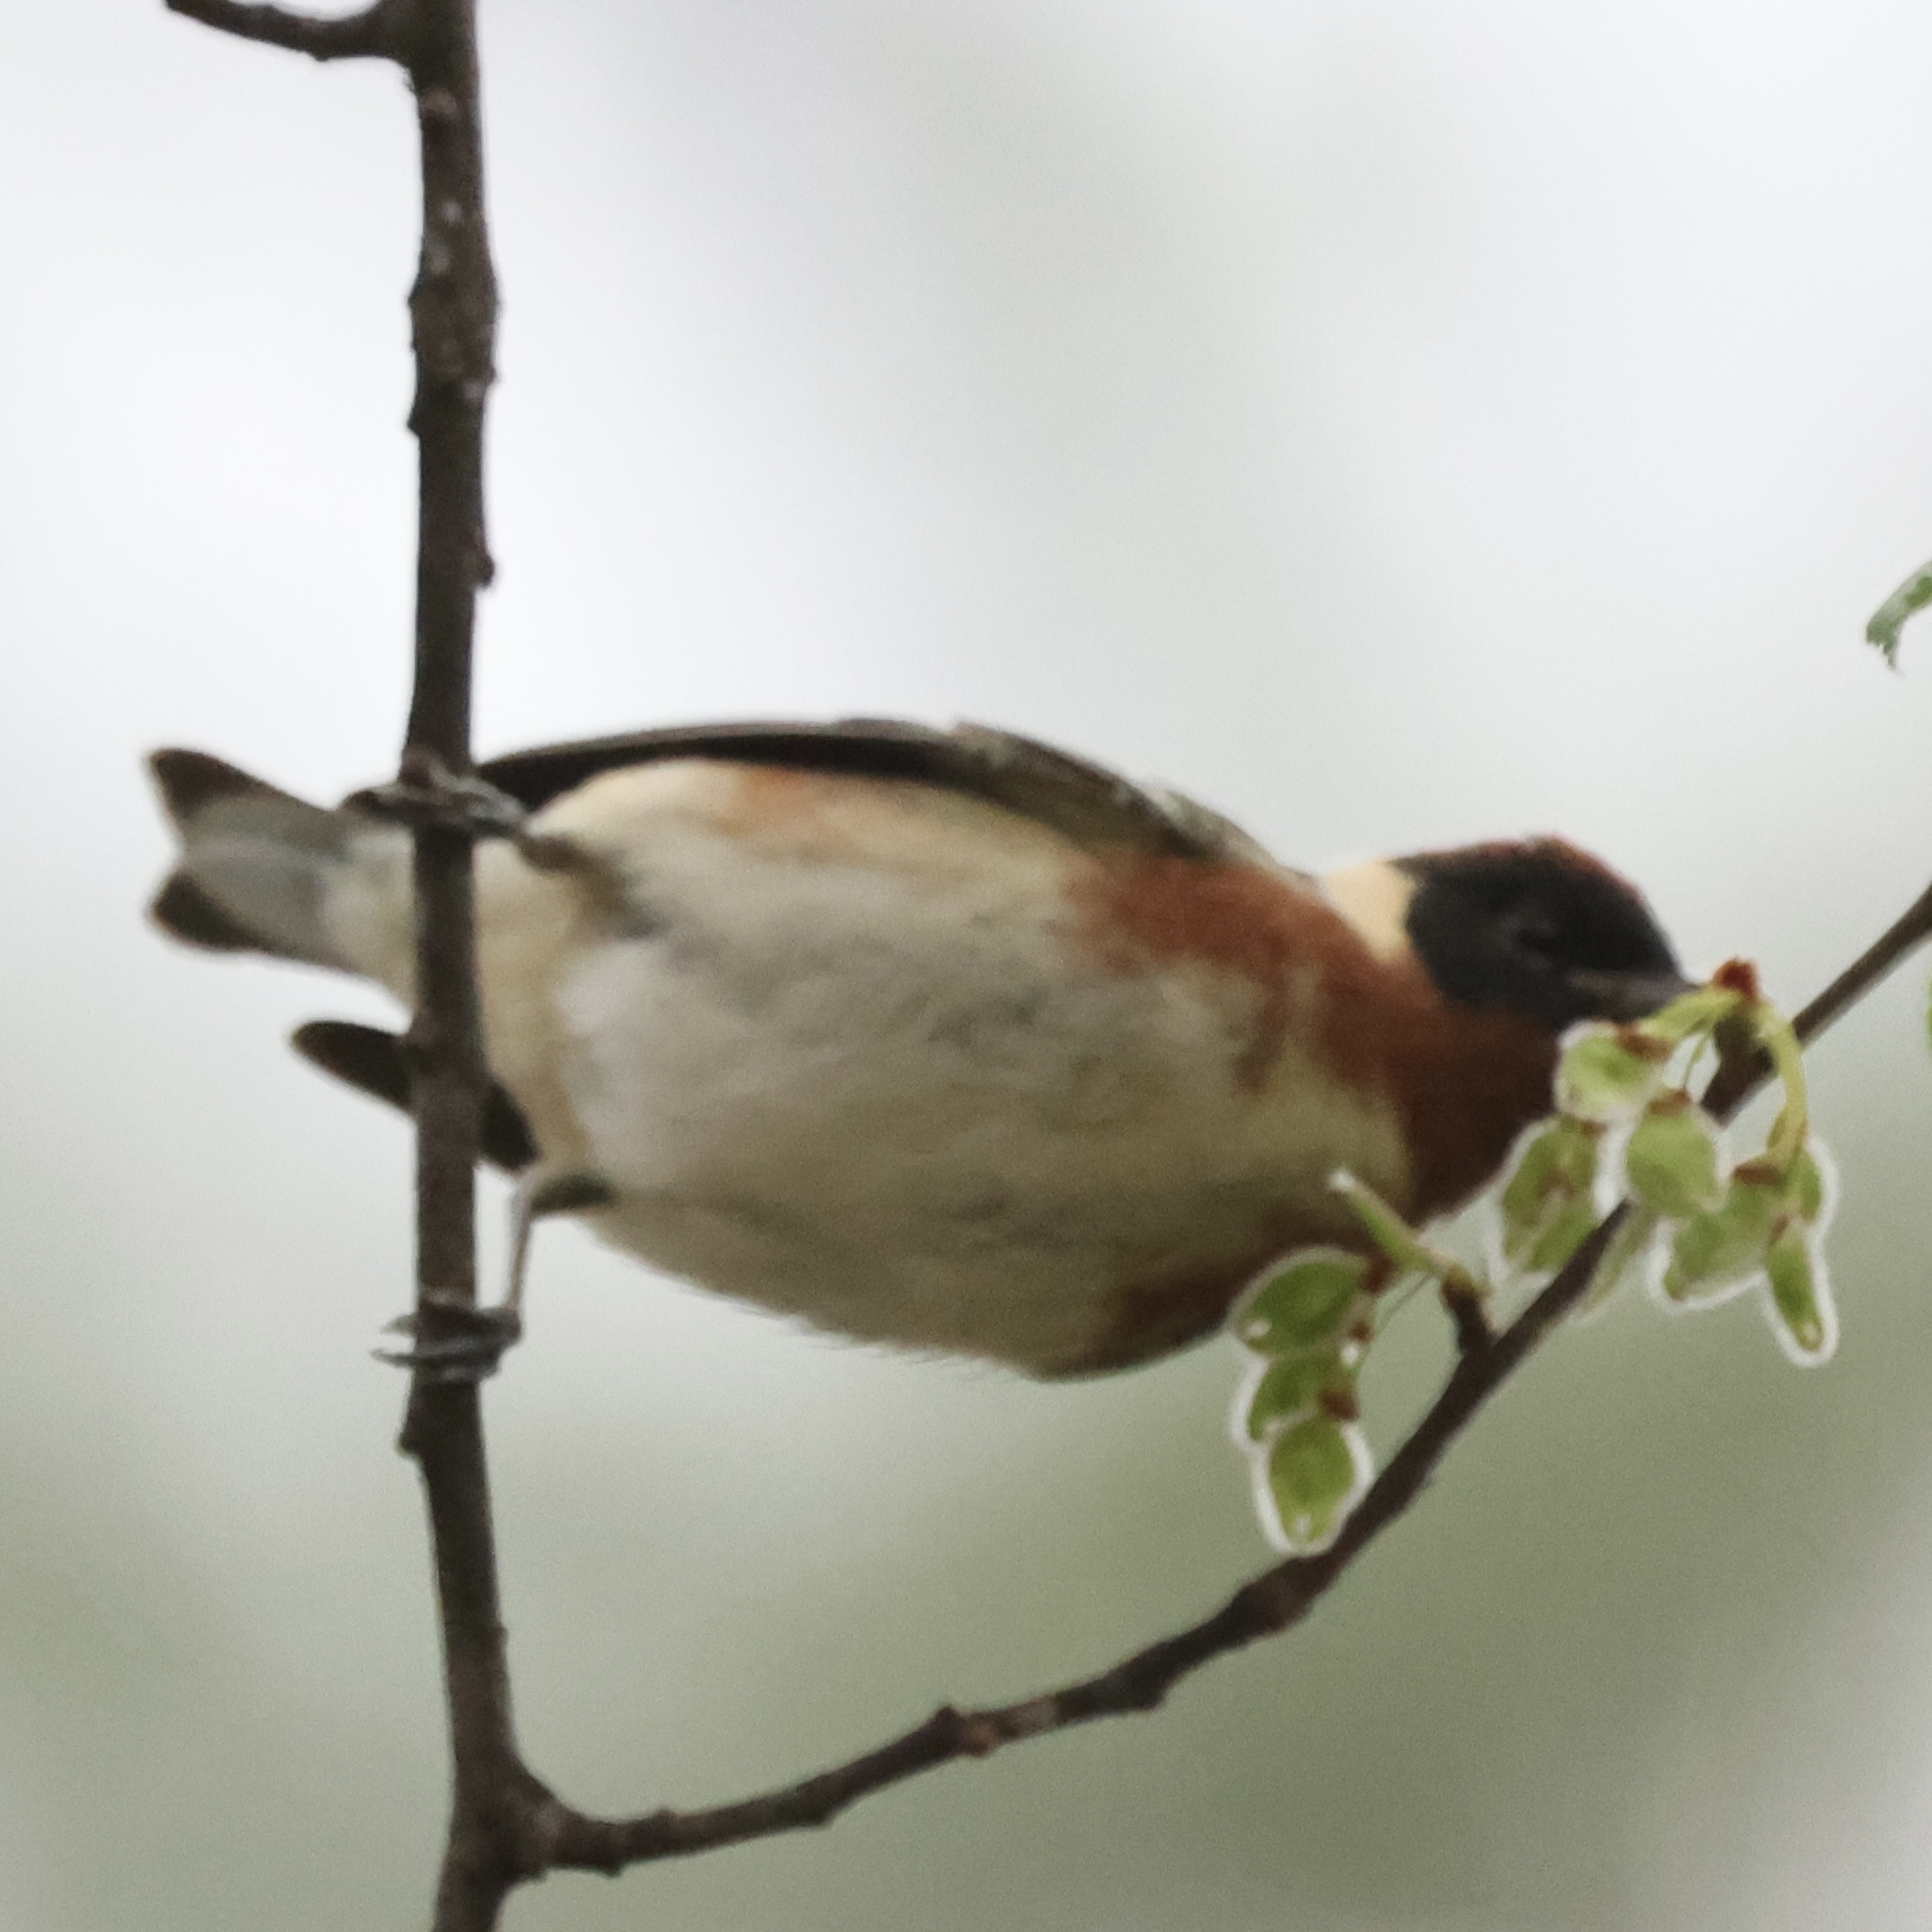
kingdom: Animalia
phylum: Chordata
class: Aves
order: Passeriformes
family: Parulidae
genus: Setophaga
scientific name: Setophaga castanea
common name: Bay-breasted warbler
